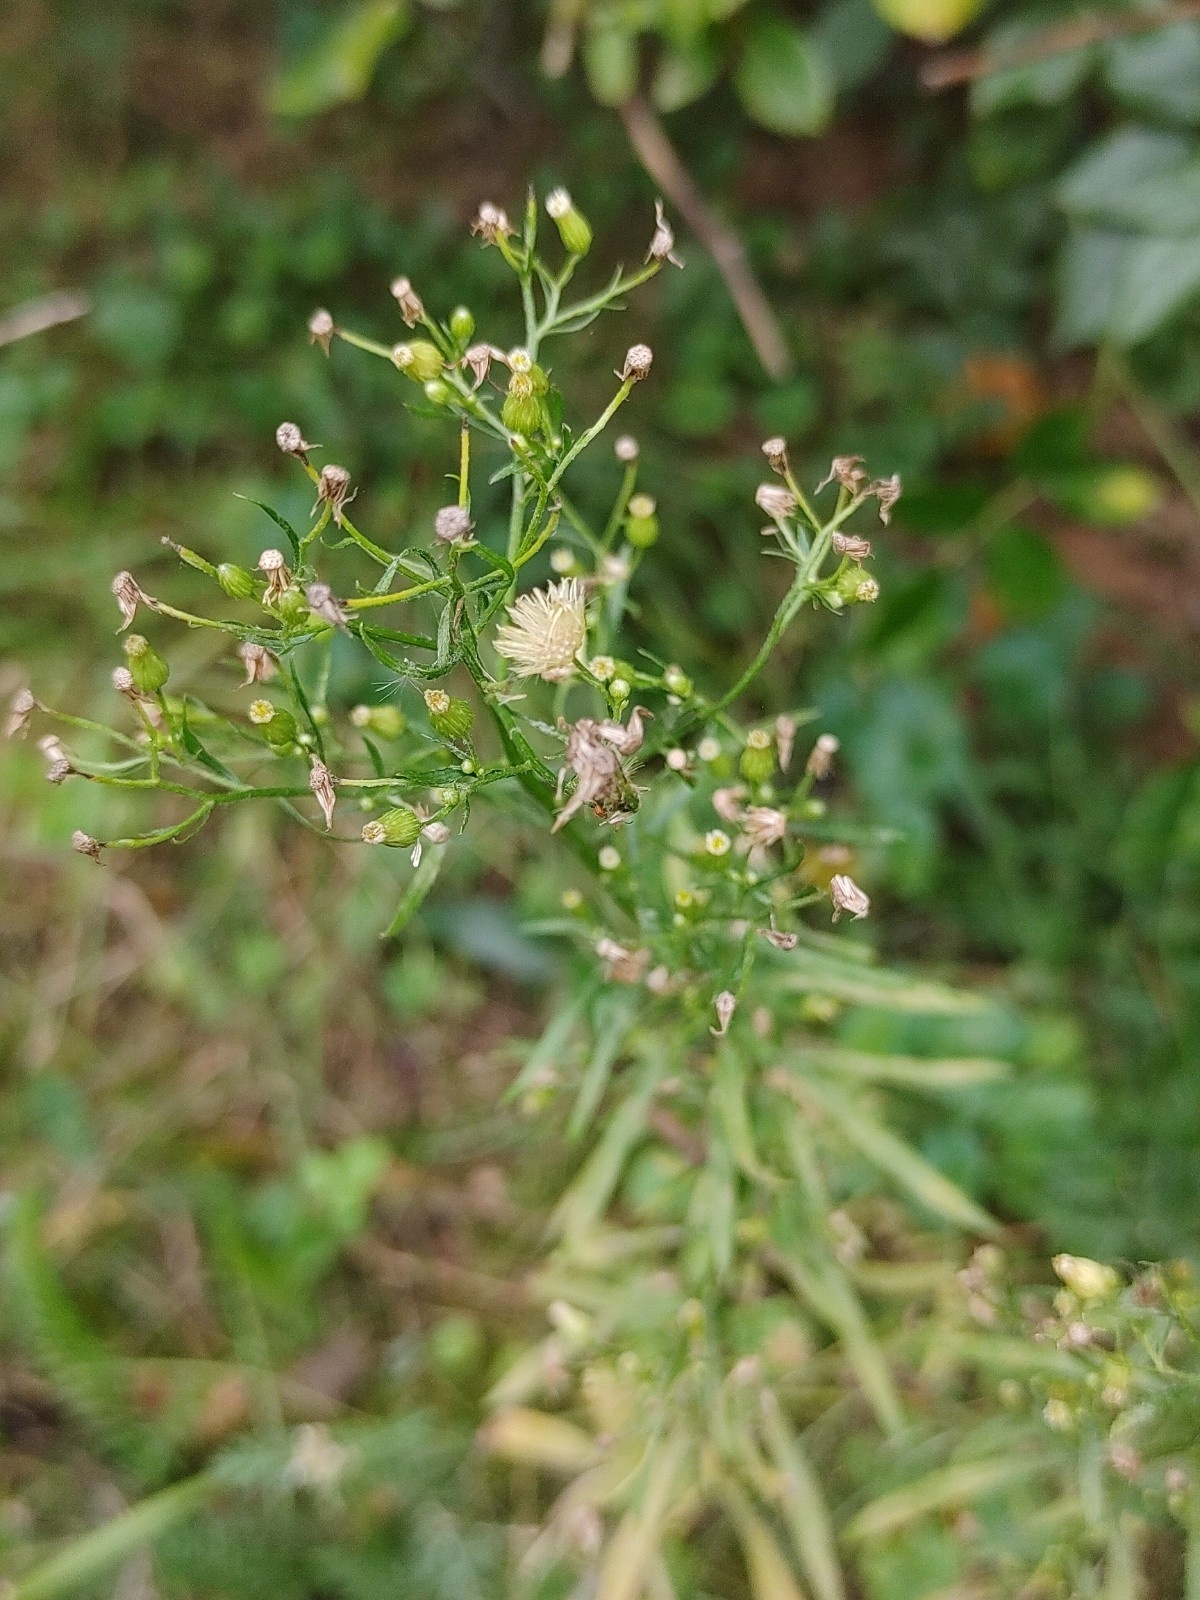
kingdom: Plantae
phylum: Tracheophyta
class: Magnoliopsida
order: Asterales
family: Asteraceae
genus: Erigeron
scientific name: Erigeron canadensis
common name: Canadian fleabane
